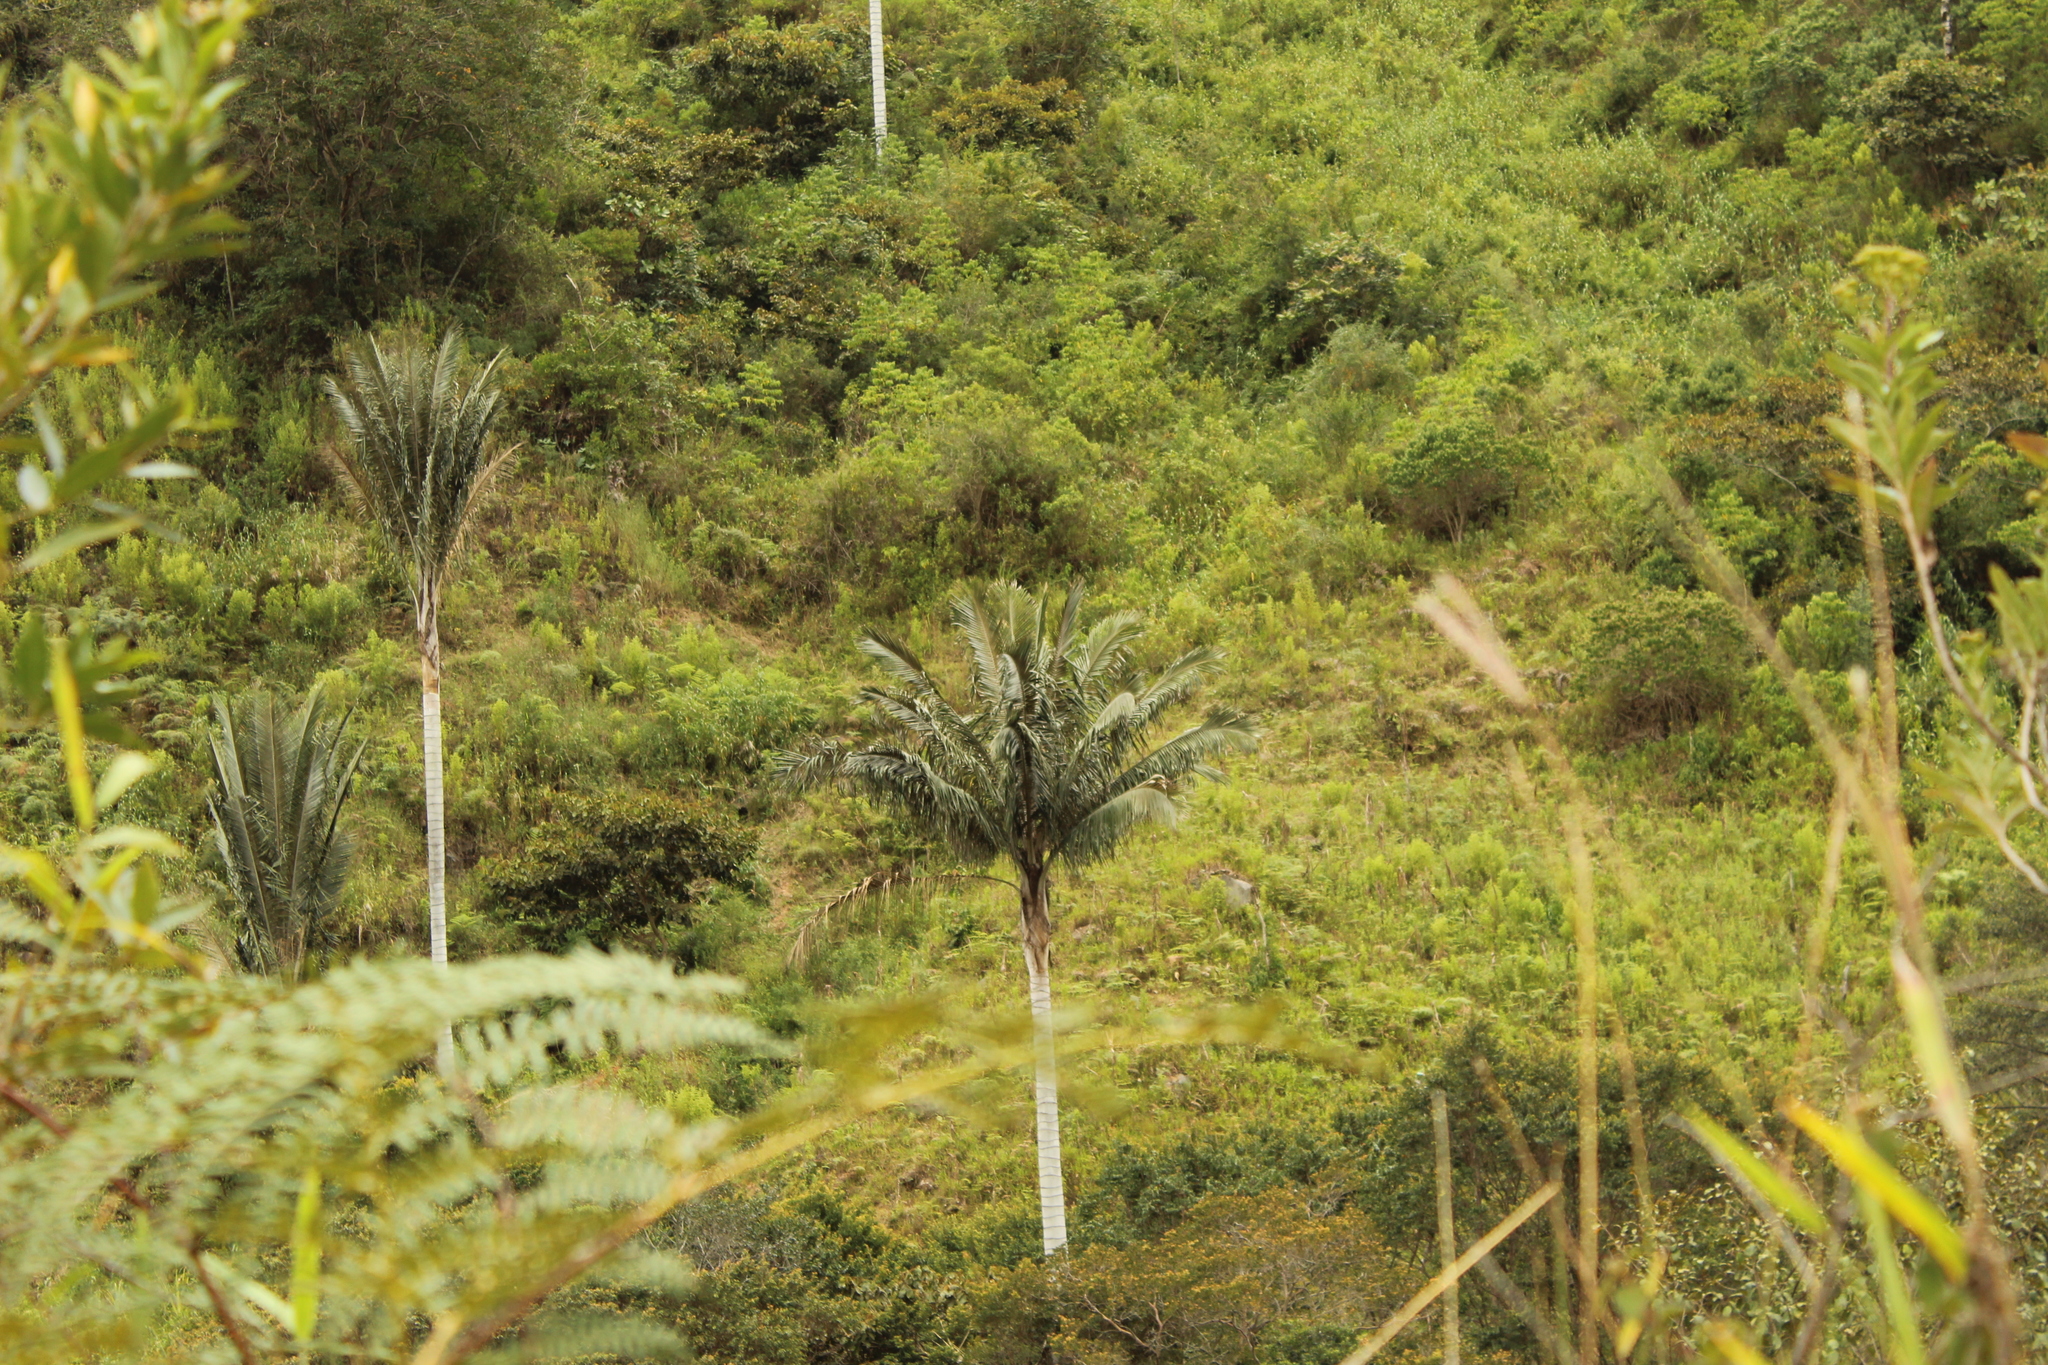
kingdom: Plantae
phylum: Tracheophyta
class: Liliopsida
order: Arecales
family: Arecaceae
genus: Ceroxylon
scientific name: Ceroxylon quindiuense
